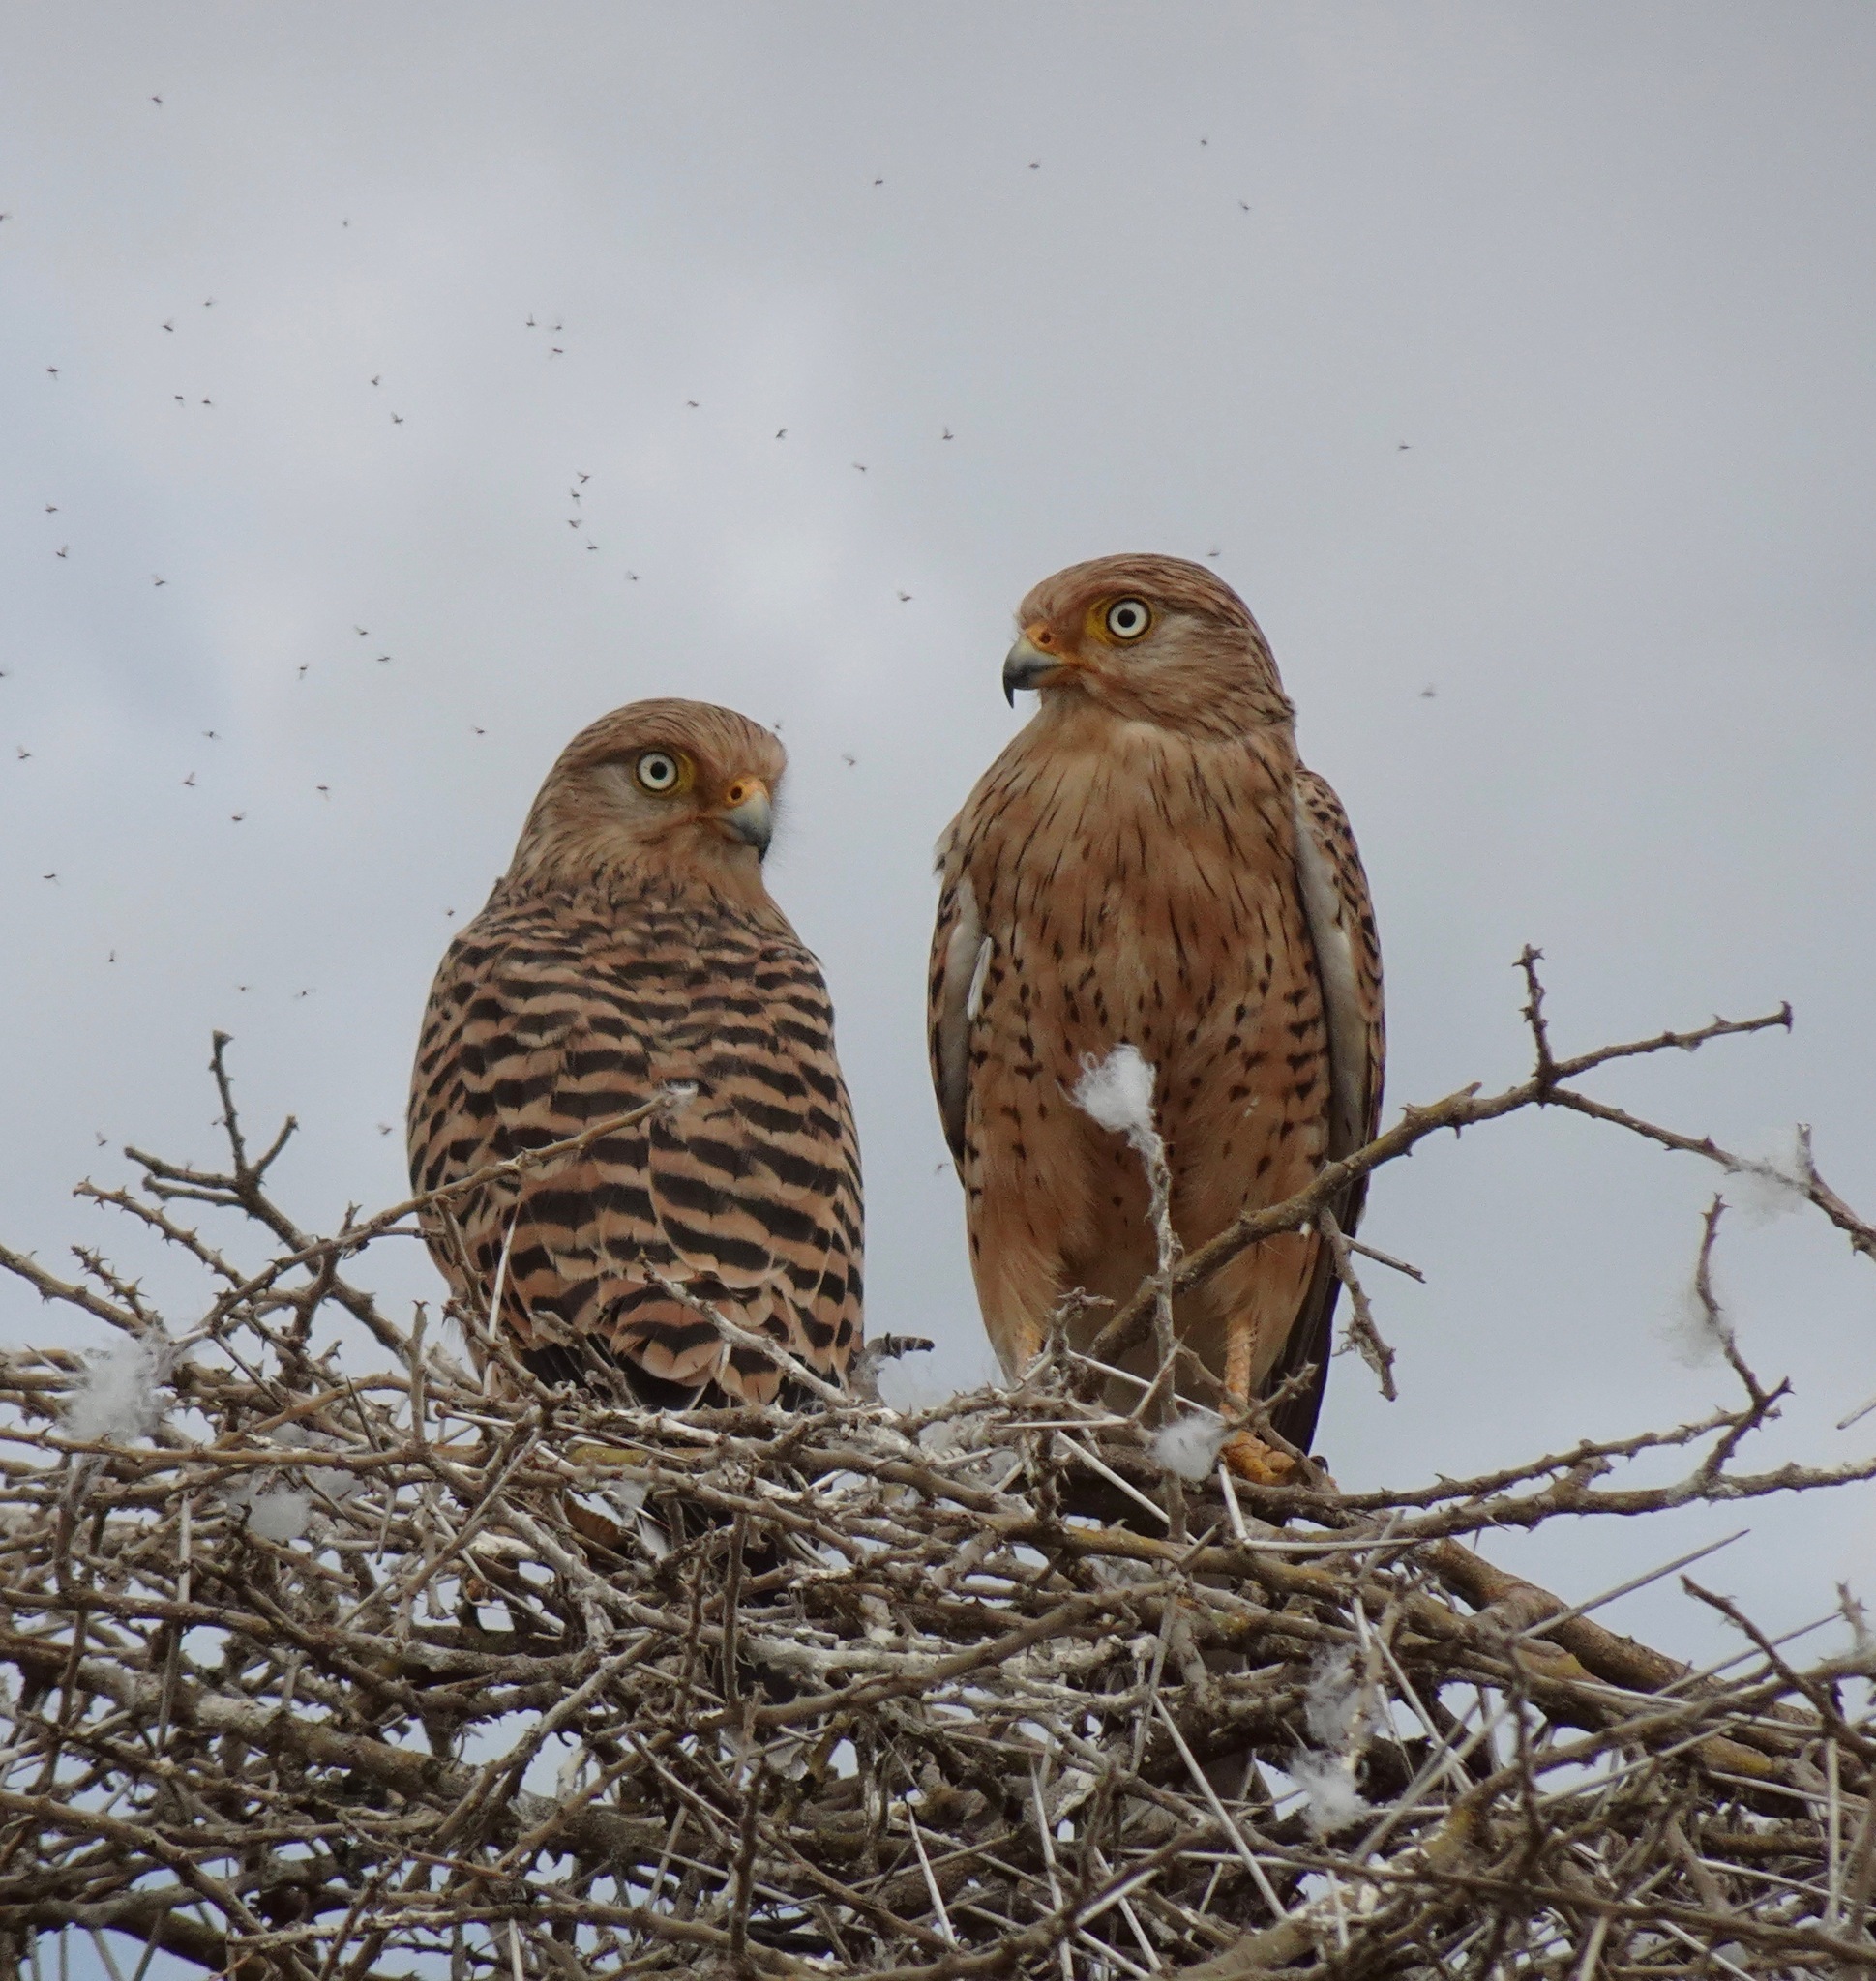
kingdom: Animalia
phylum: Chordata
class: Aves
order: Falconiformes
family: Falconidae
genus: Falco
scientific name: Falco rupicoloides
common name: Greater kestrel
